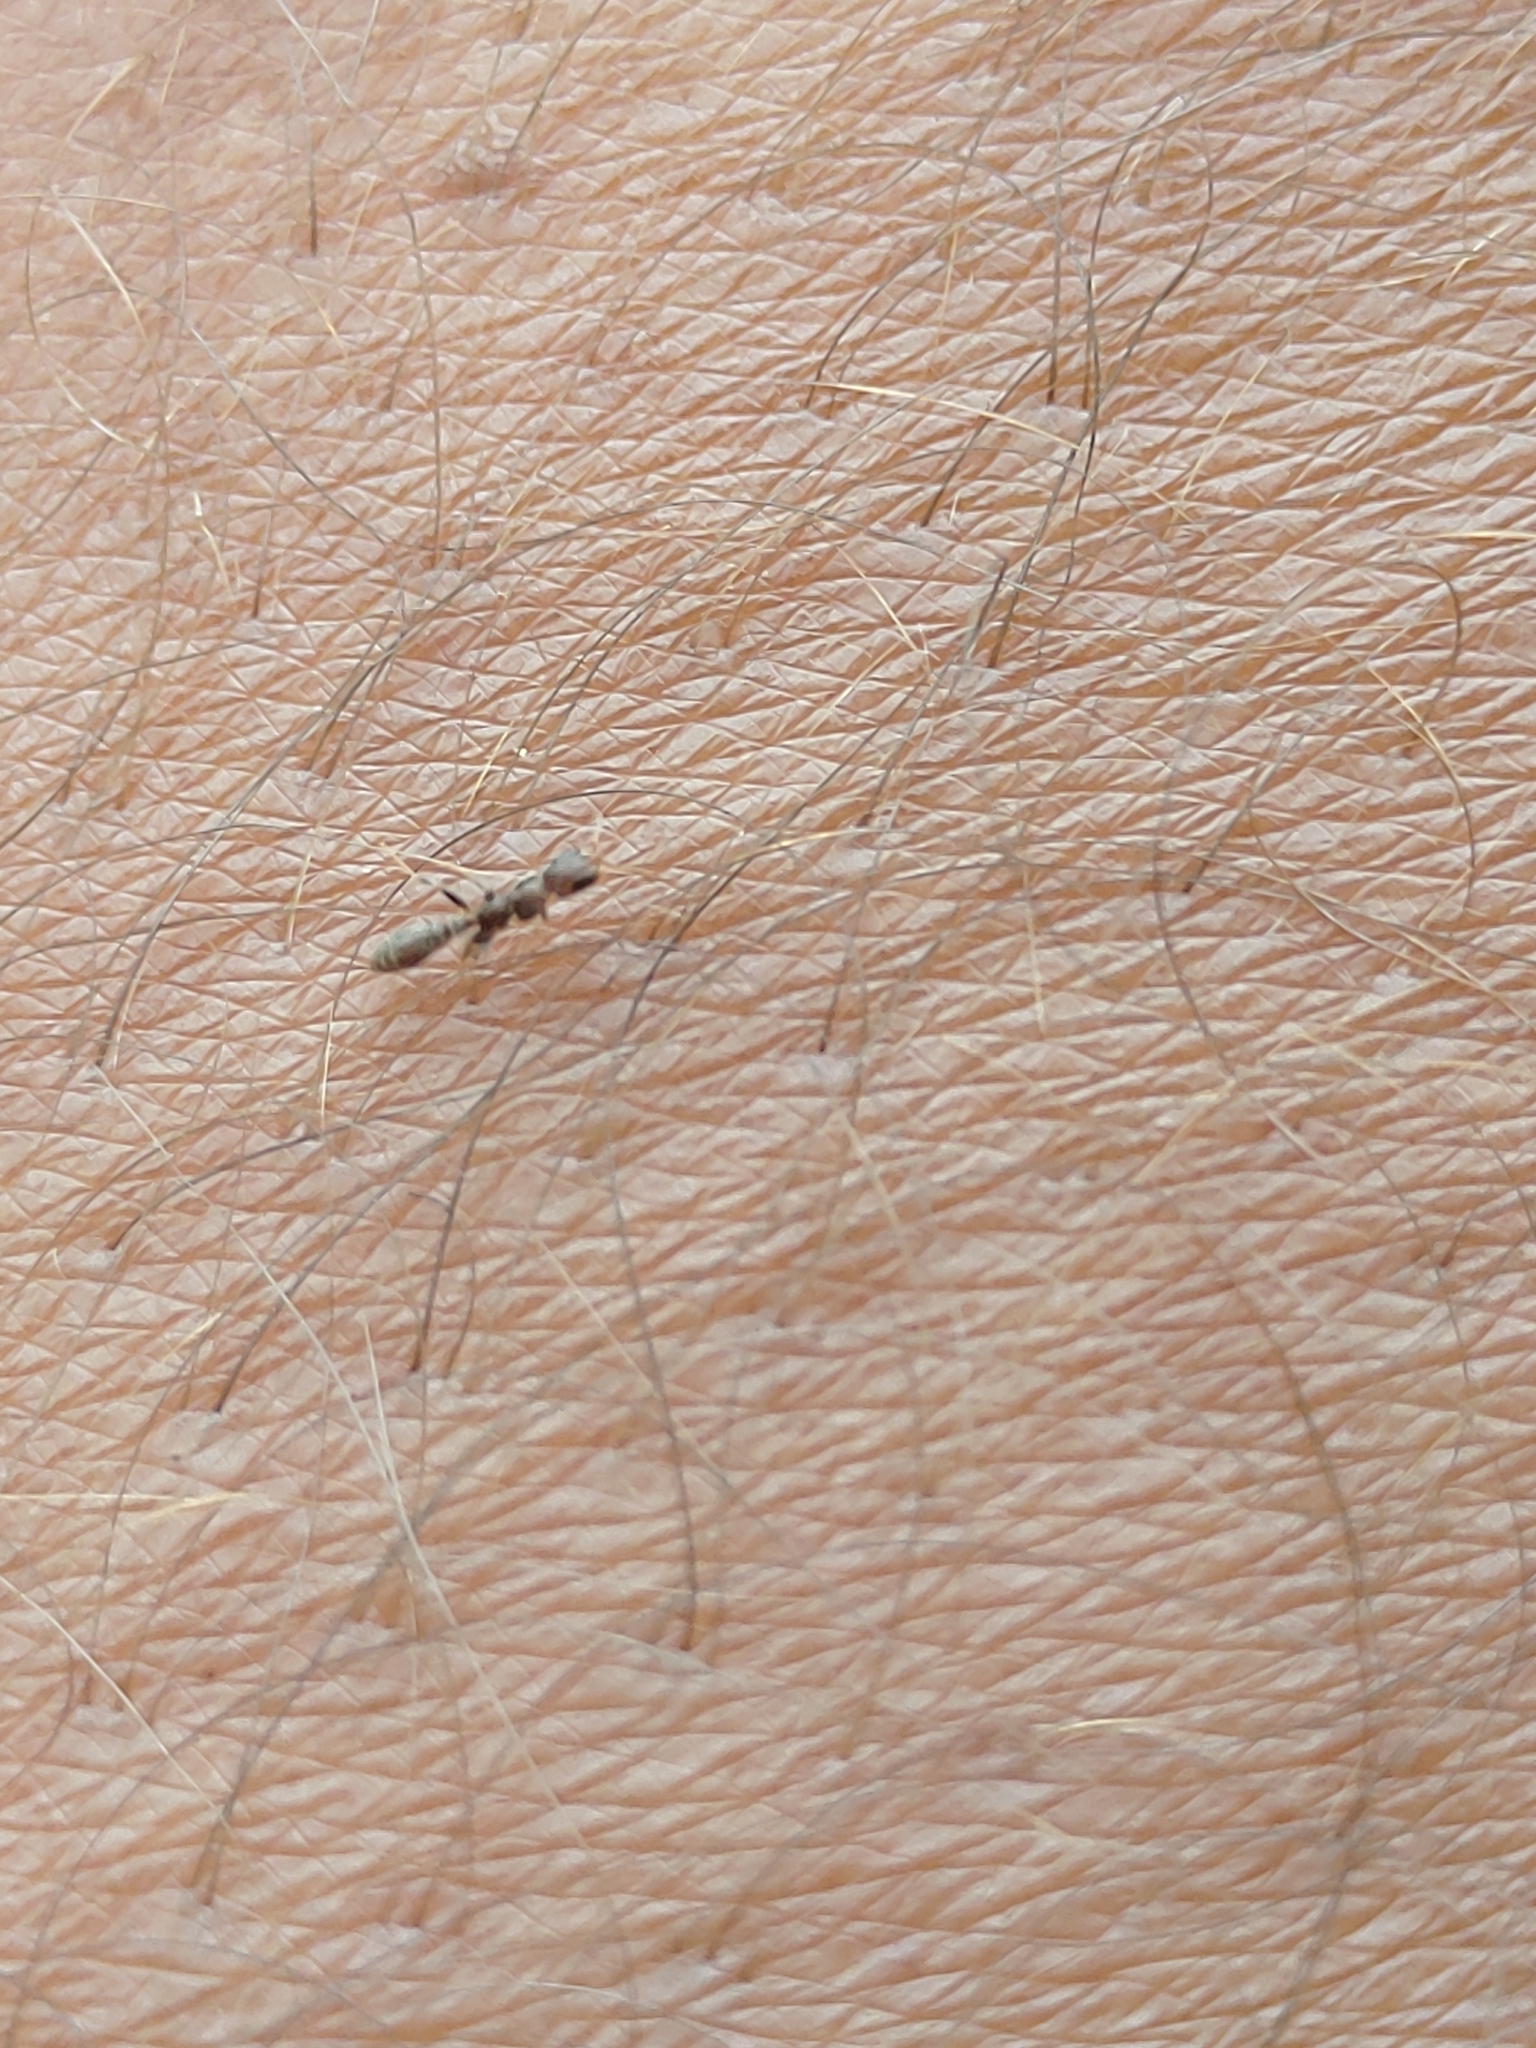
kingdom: Animalia
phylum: Arthropoda
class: Insecta
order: Hymenoptera
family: Formicidae
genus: Pseudomyrmex
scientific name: Pseudomyrmex cubaensis
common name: Ant
